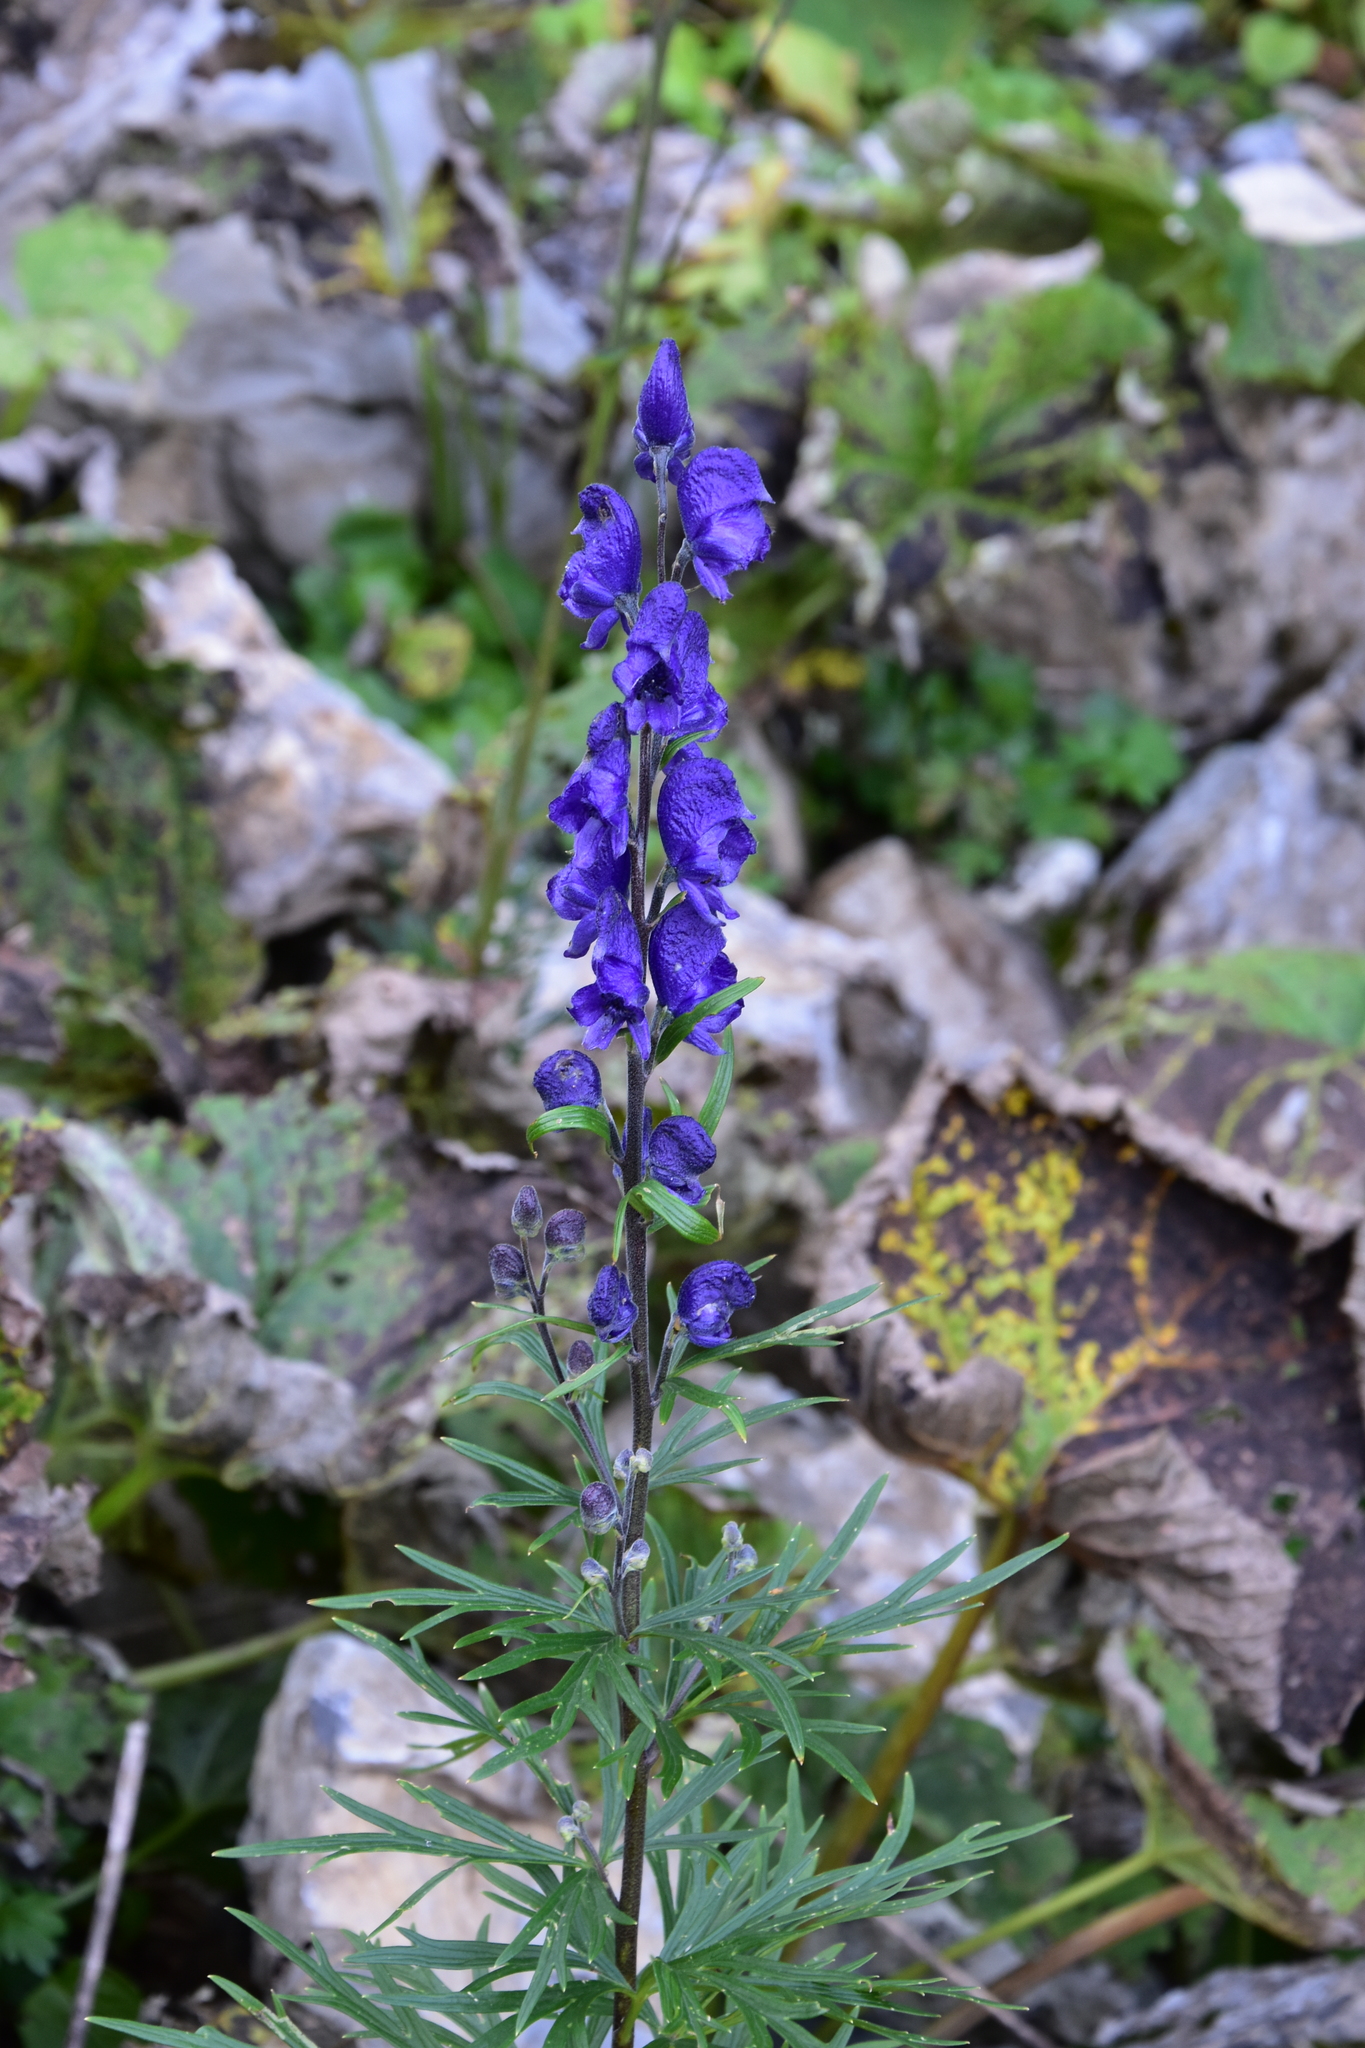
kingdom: Plantae
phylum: Tracheophyta
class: Magnoliopsida
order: Ranunculales
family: Ranunculaceae
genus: Aconitum
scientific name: Aconitum napellus
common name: Garden monkshood
